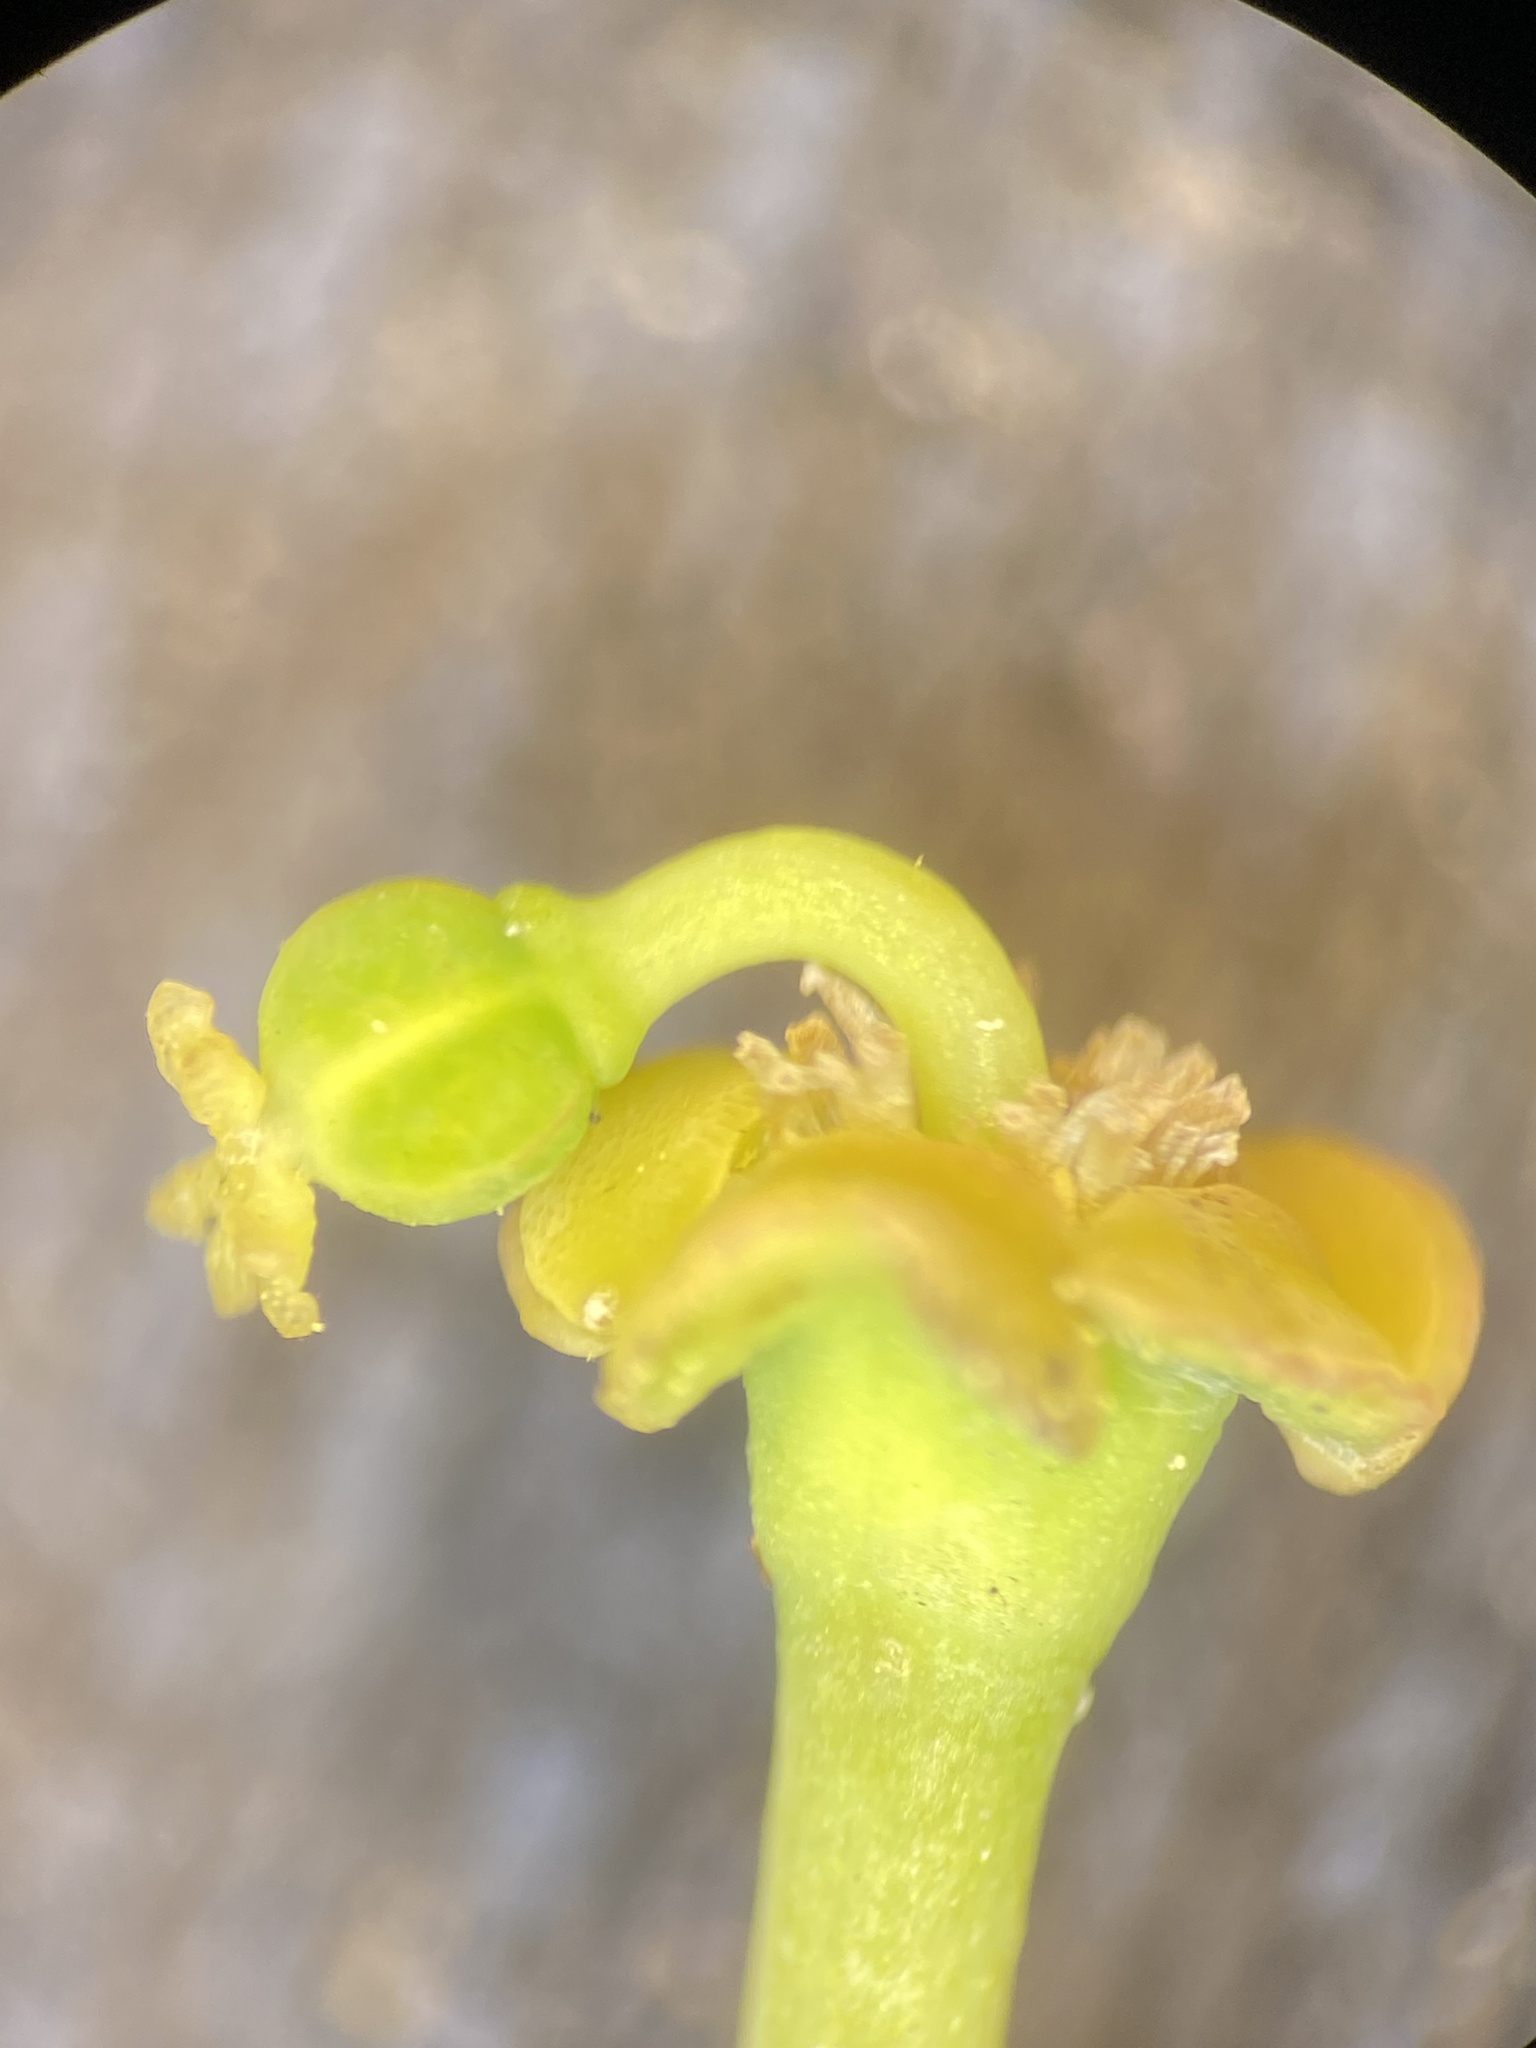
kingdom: Plantae
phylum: Tracheophyta
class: Magnoliopsida
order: Malpighiales
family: Euphorbiaceae
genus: Euphorbia
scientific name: Euphorbia ipecacuanhae
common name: Carolina ipecac
